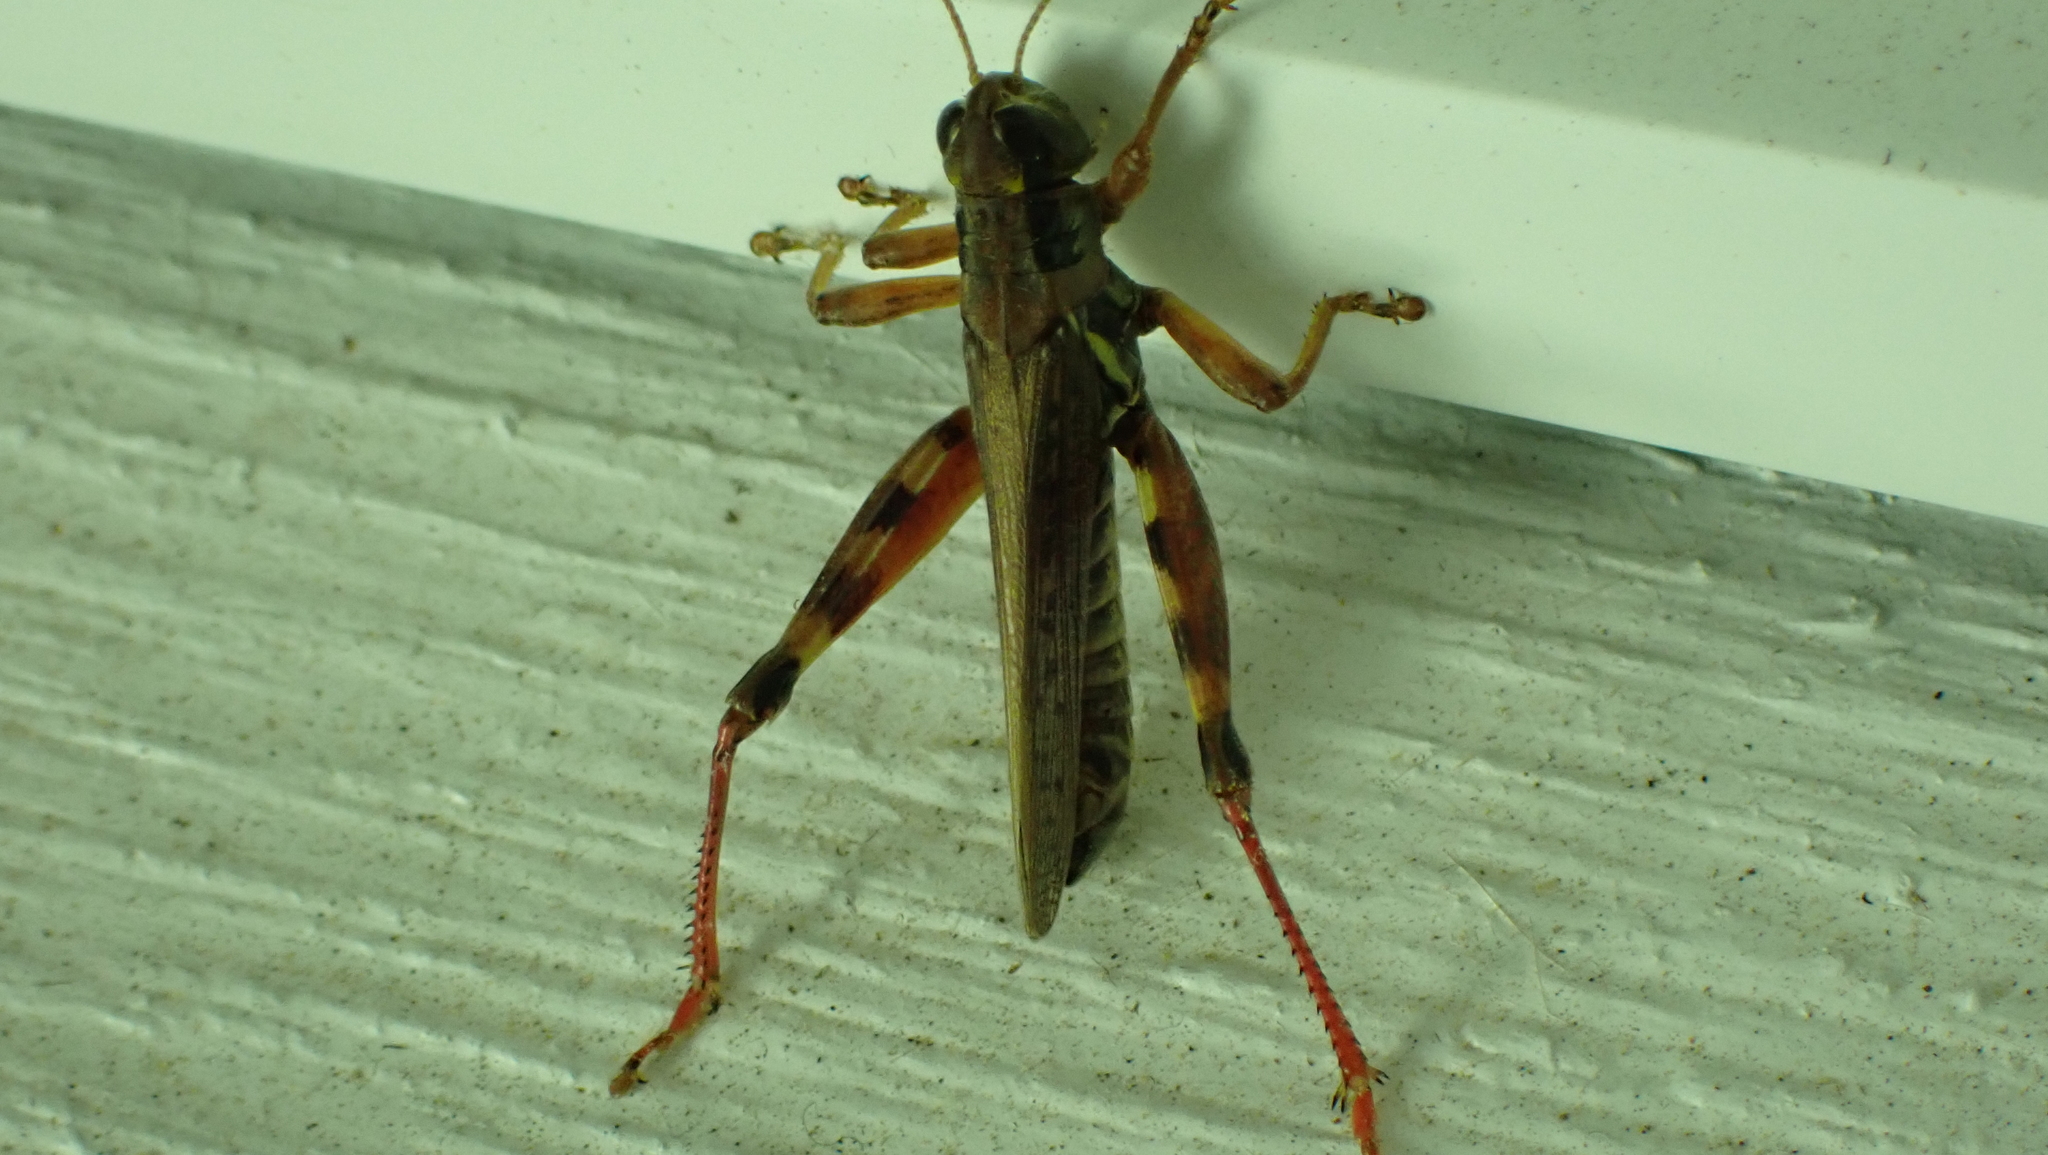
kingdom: Animalia
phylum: Arthropoda
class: Insecta
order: Orthoptera
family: Acrididae
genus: Melanoplus
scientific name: Melanoplus sanguinipes
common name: Migratory grasshopper
